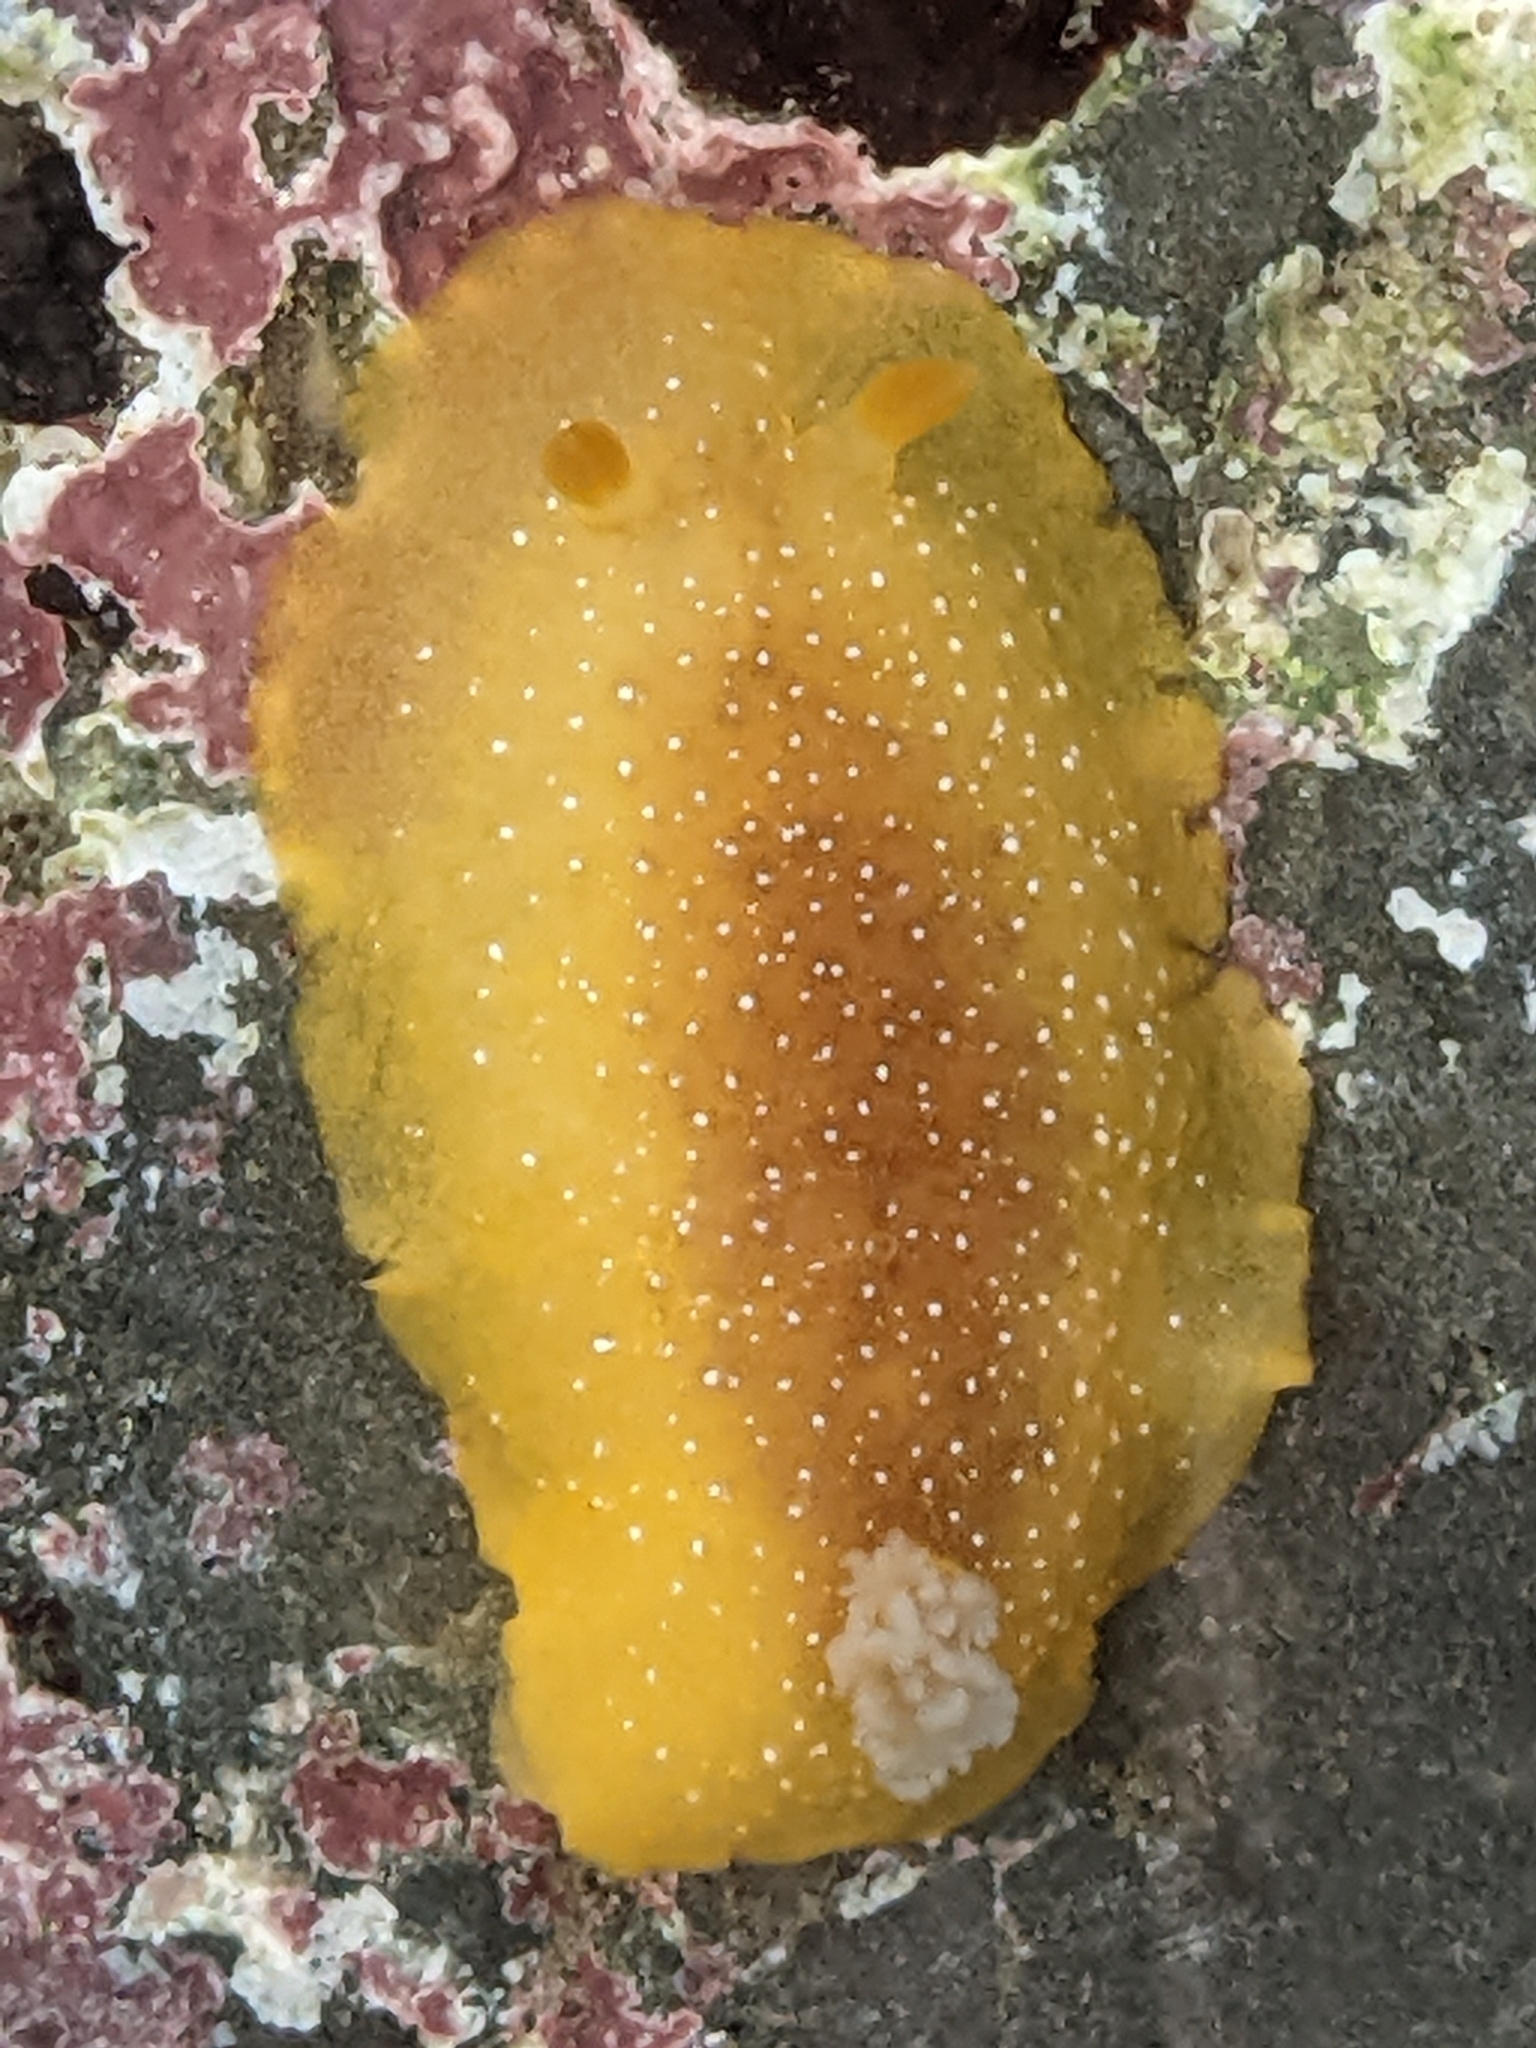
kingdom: Animalia
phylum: Mollusca
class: Gastropoda
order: Nudibranchia
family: Dendrodorididae
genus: Doriopsilla
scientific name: Doriopsilla fulva
